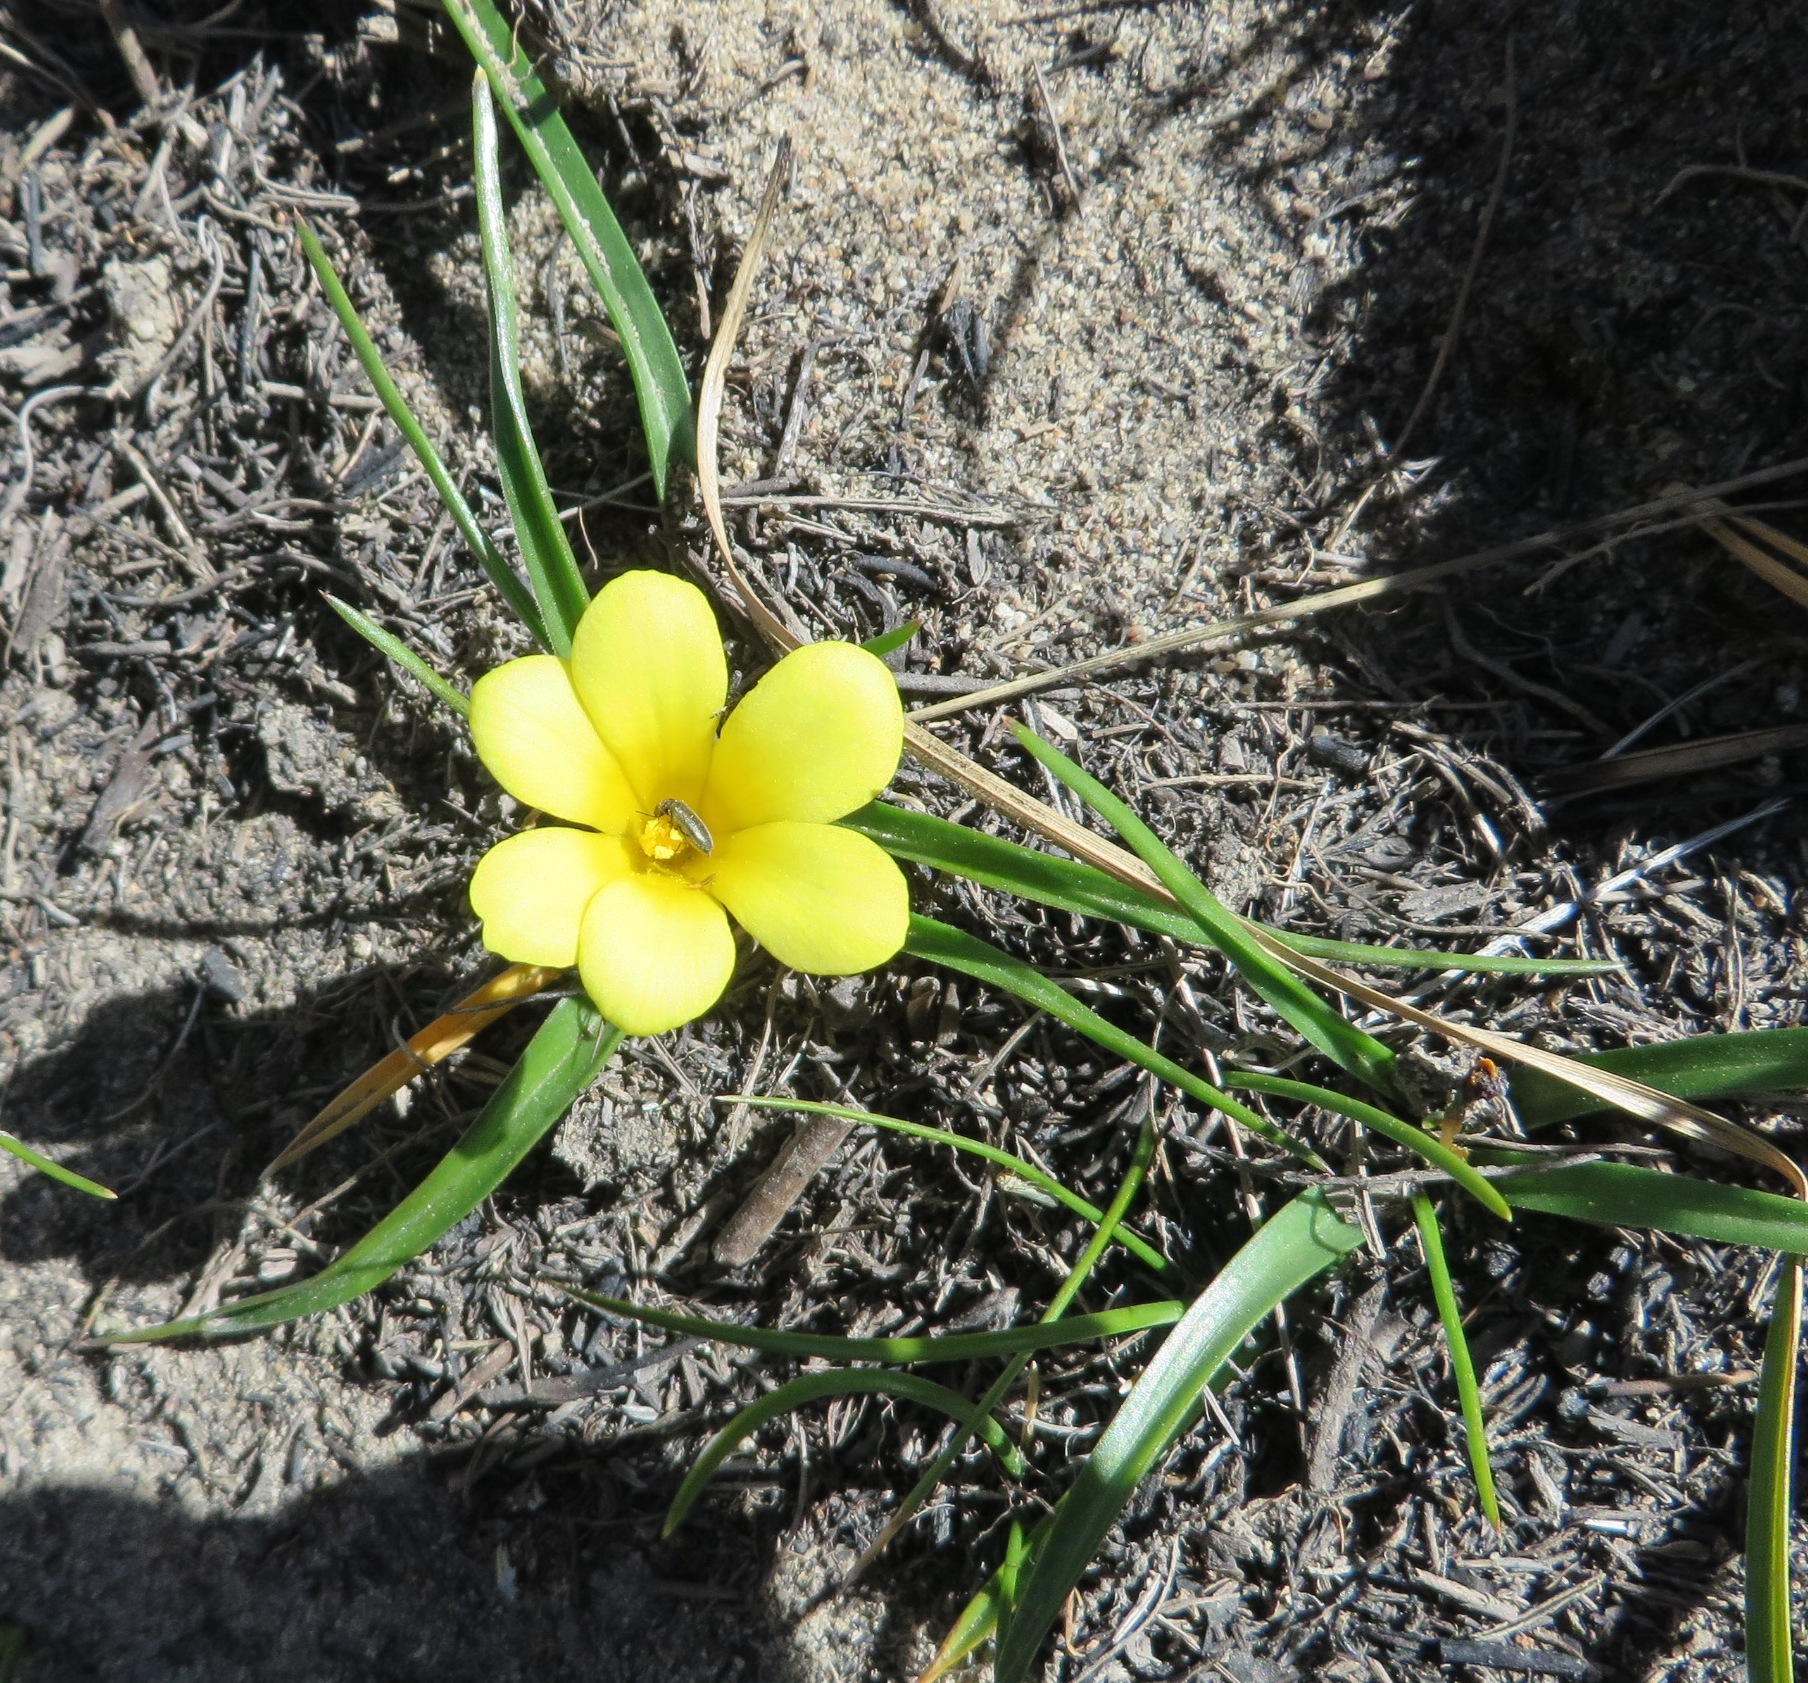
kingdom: Plantae
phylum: Tracheophyta
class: Liliopsida
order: Asparagales
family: Iridaceae
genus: Moraea
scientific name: Moraea fugacissima
